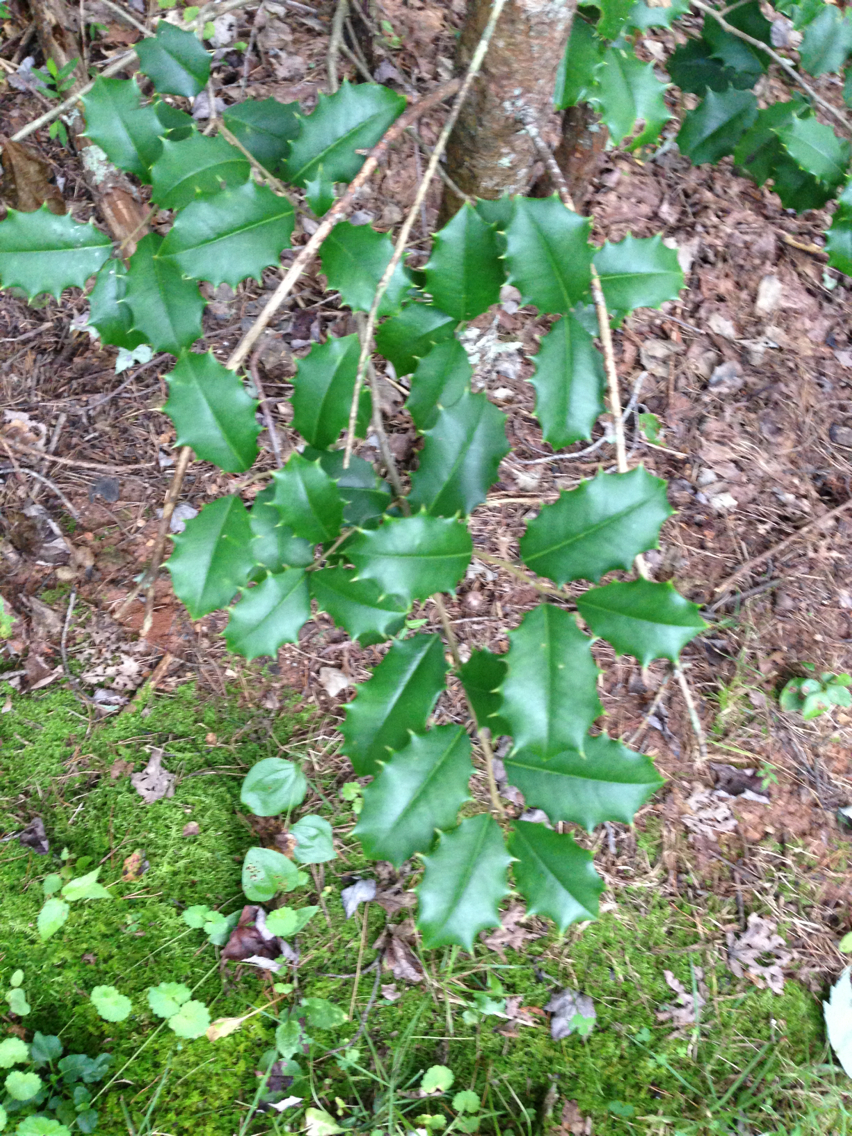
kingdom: Plantae
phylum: Tracheophyta
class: Magnoliopsida
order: Aquifoliales
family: Aquifoliaceae
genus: Ilex
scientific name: Ilex opaca
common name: American holly
